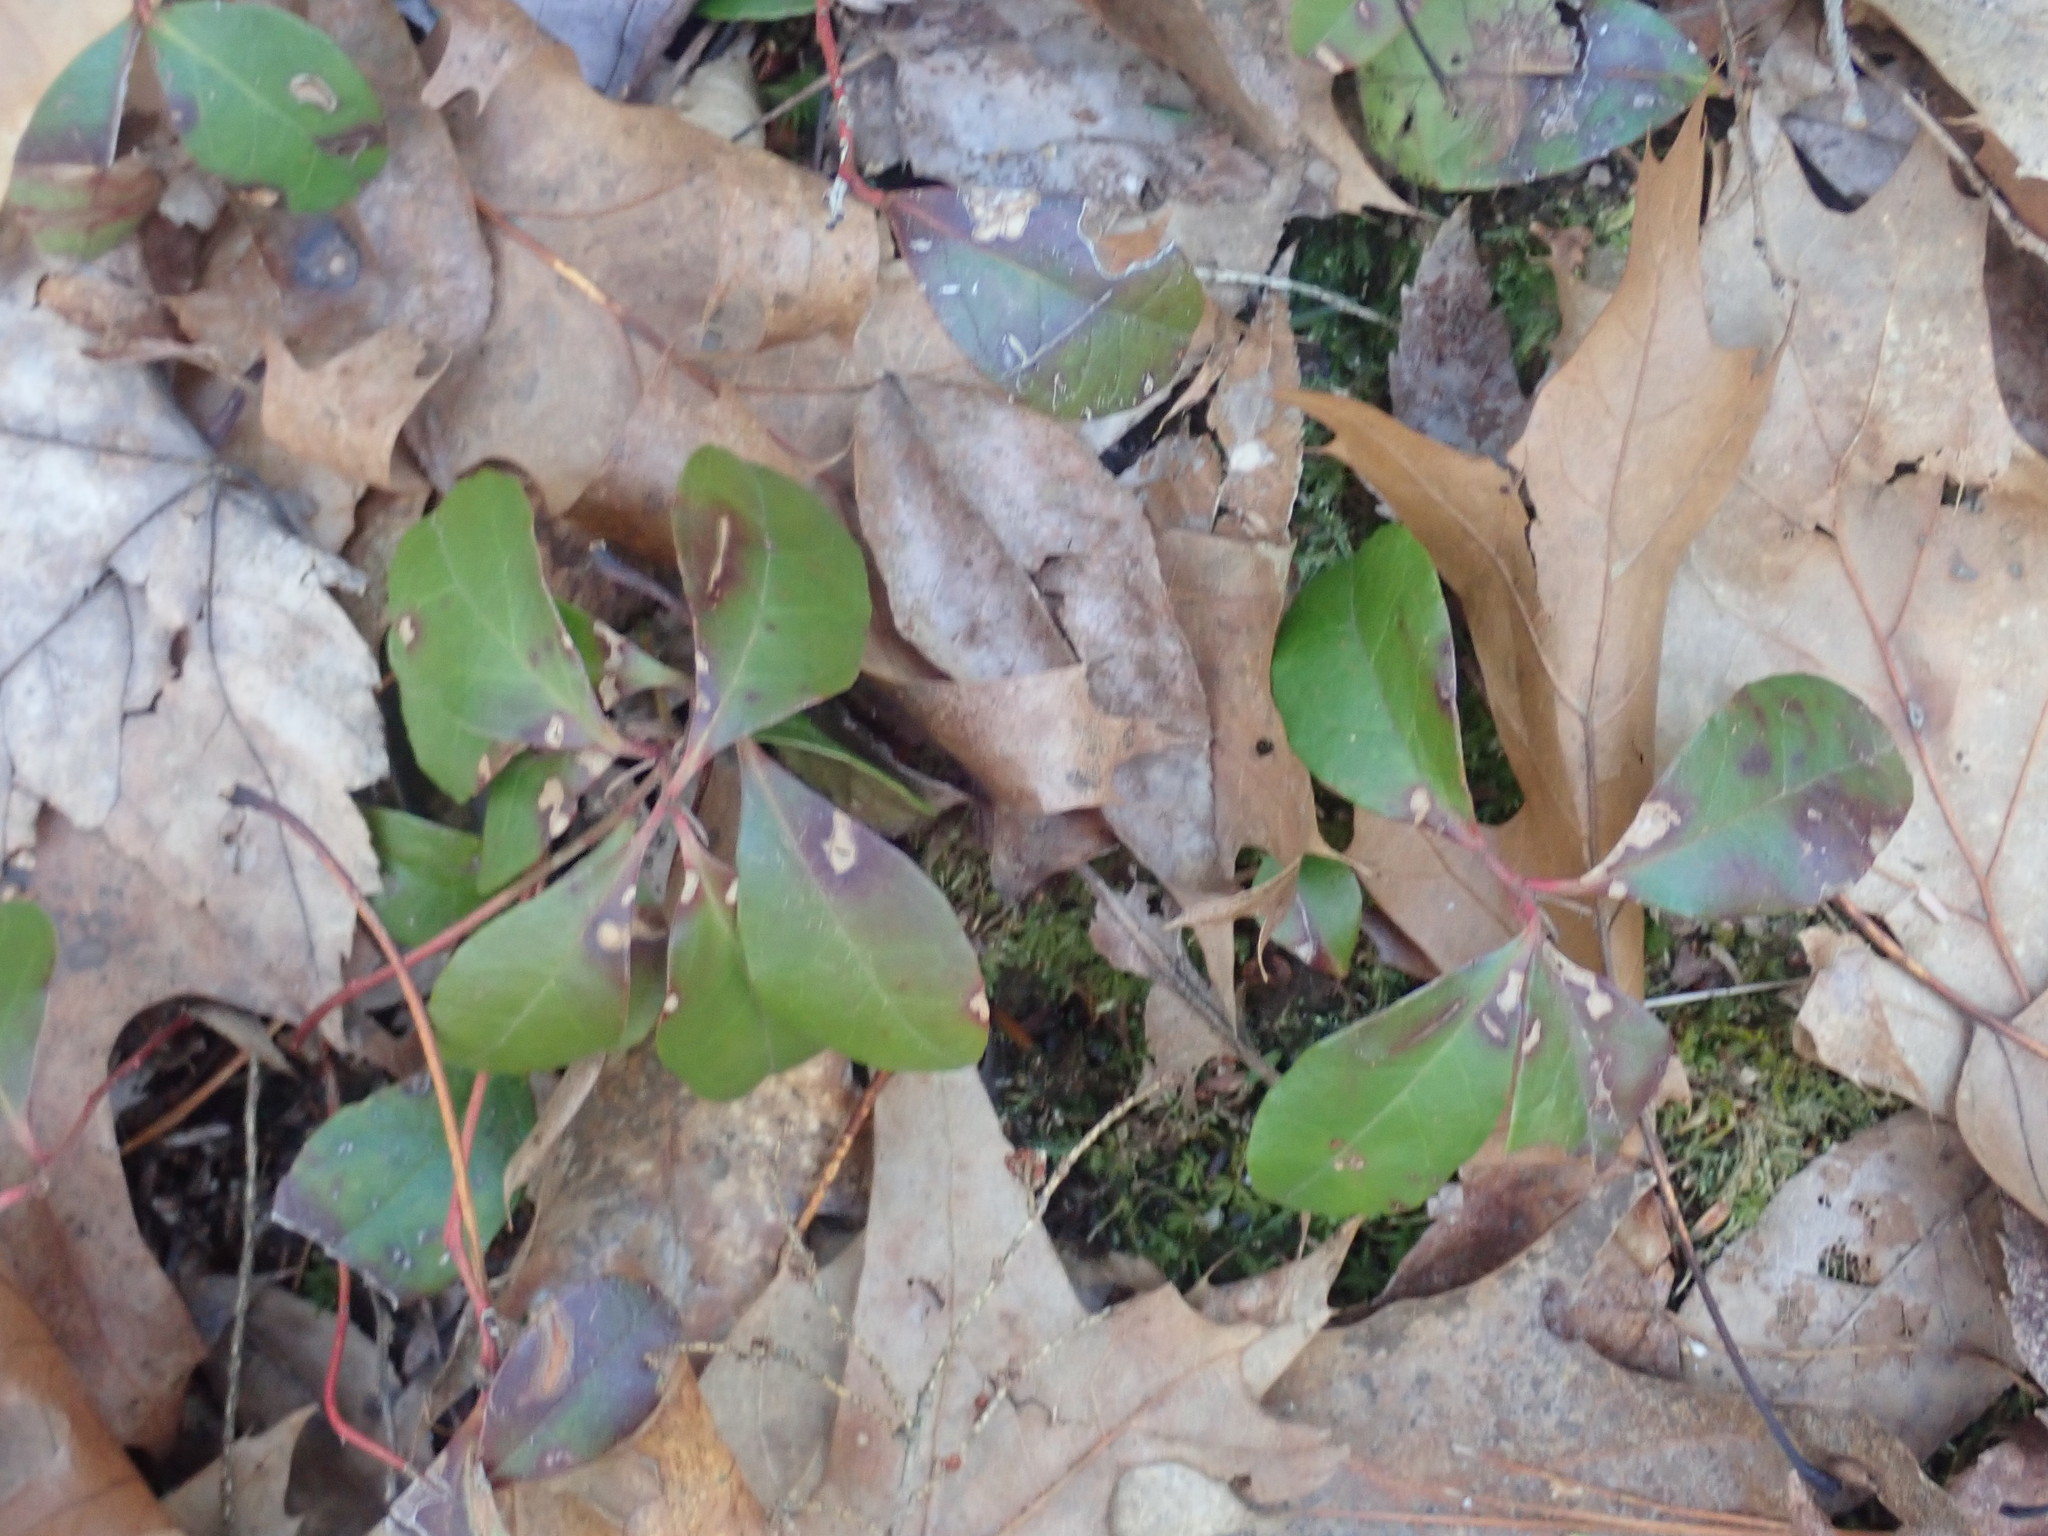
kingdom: Plantae
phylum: Tracheophyta
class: Magnoliopsida
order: Ericales
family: Ericaceae
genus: Gaultheria
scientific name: Gaultheria procumbens
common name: Checkerberry
